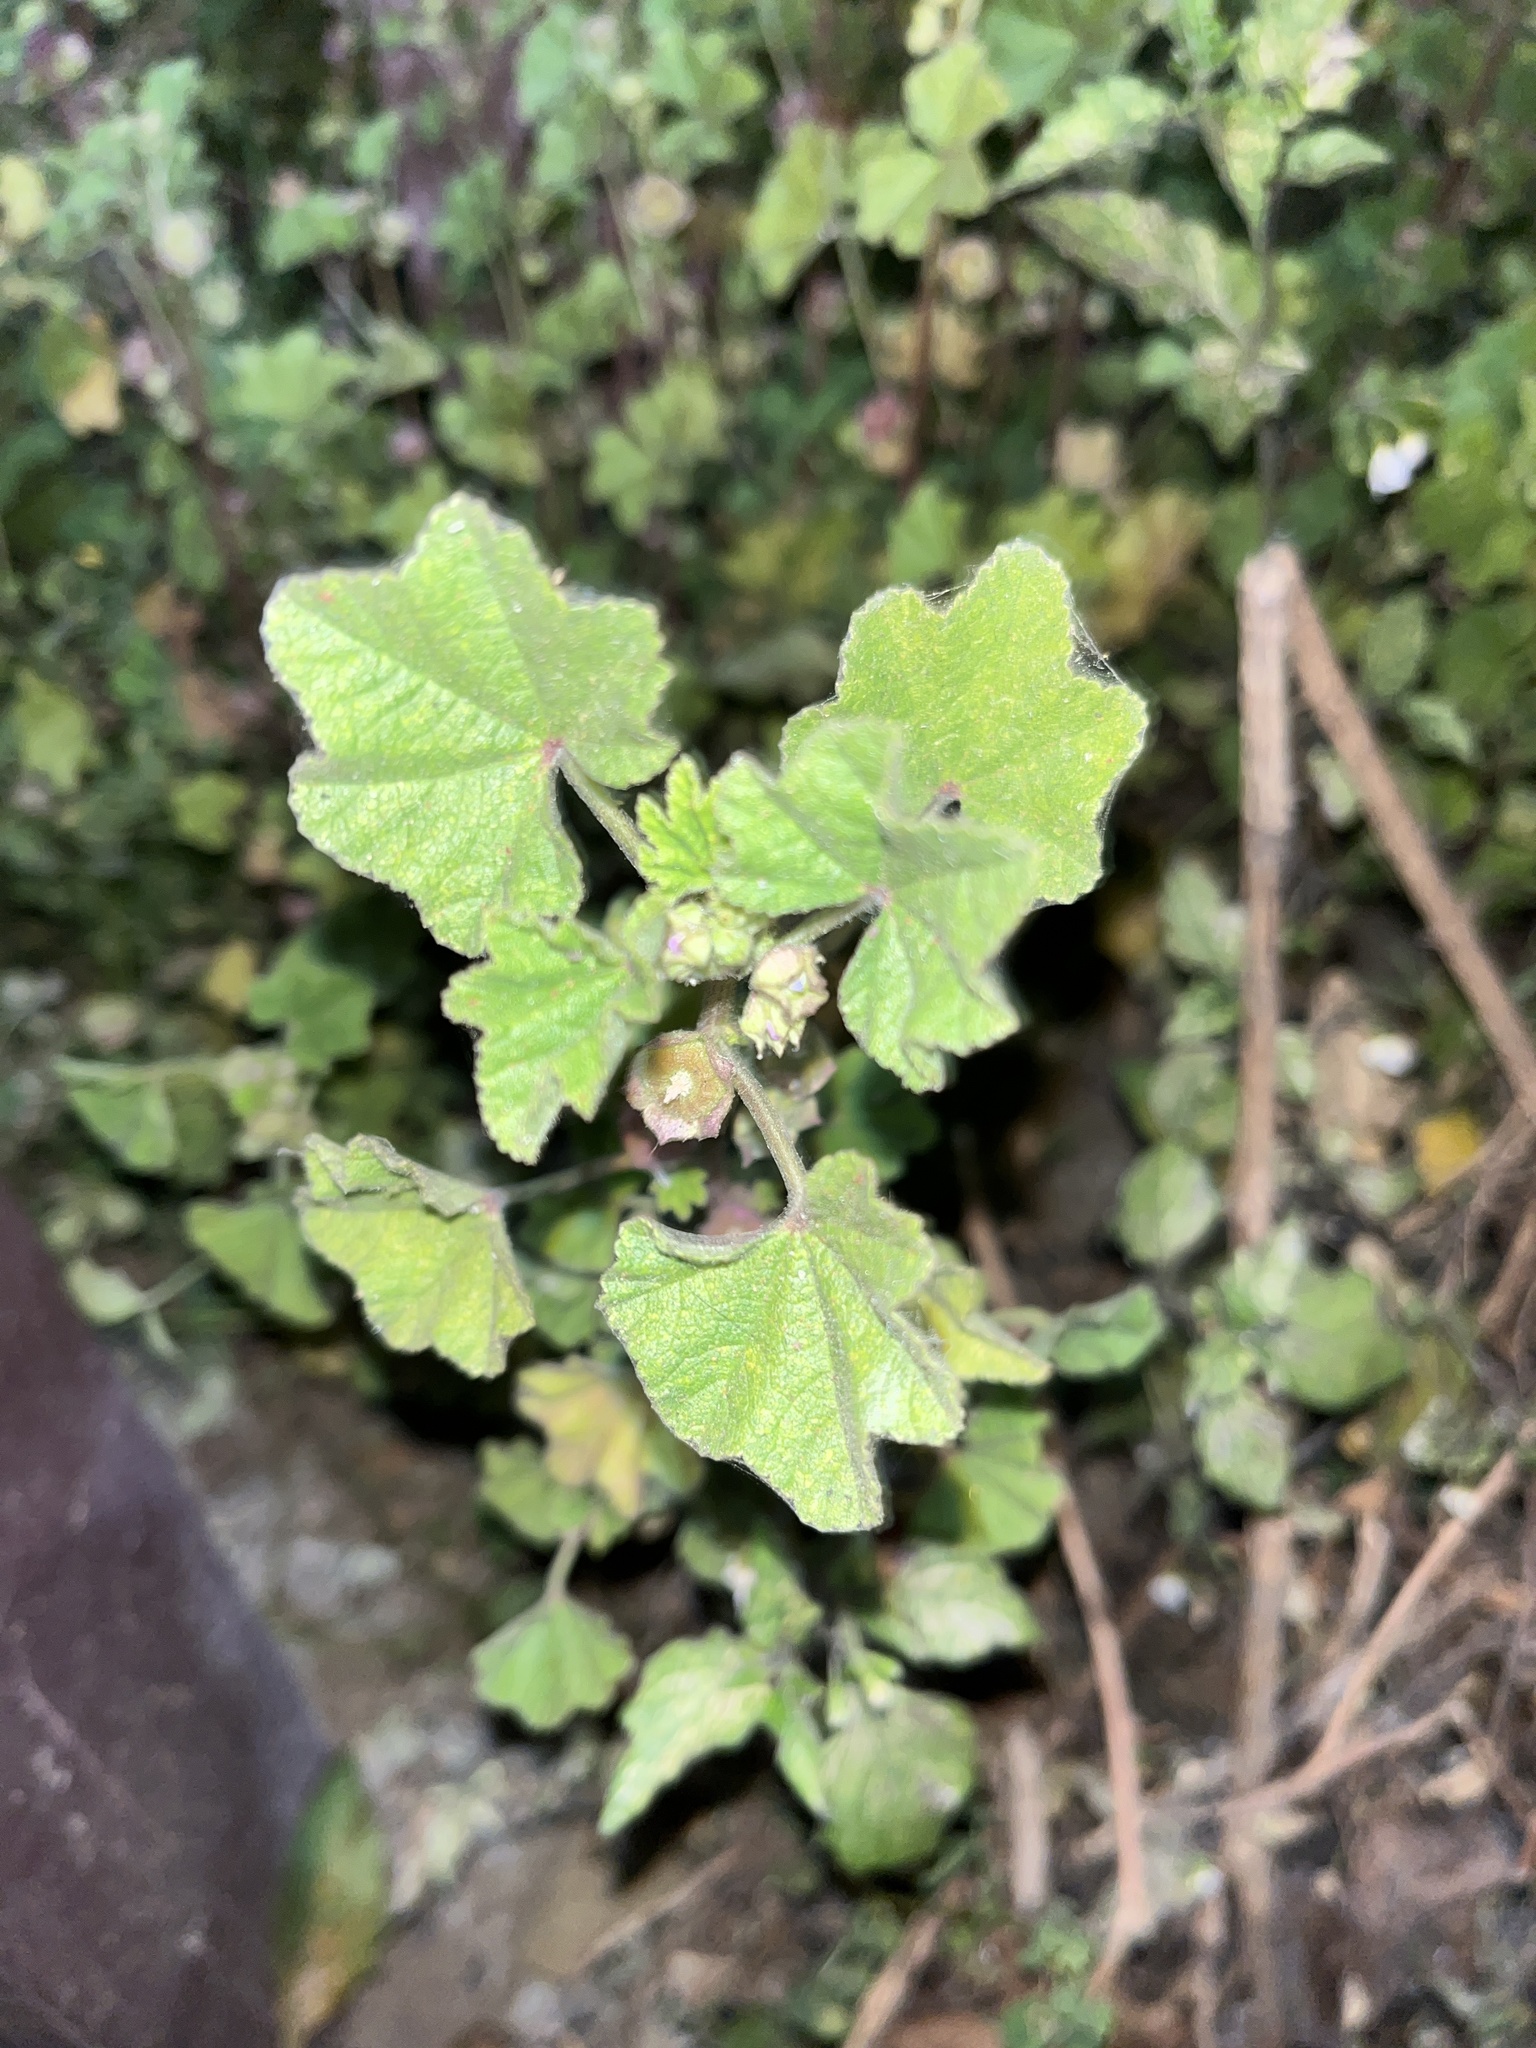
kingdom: Plantae
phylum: Tracheophyta
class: Magnoliopsida
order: Malvales
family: Malvaceae
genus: Malva
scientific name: Malva parviflora
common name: Least mallow
